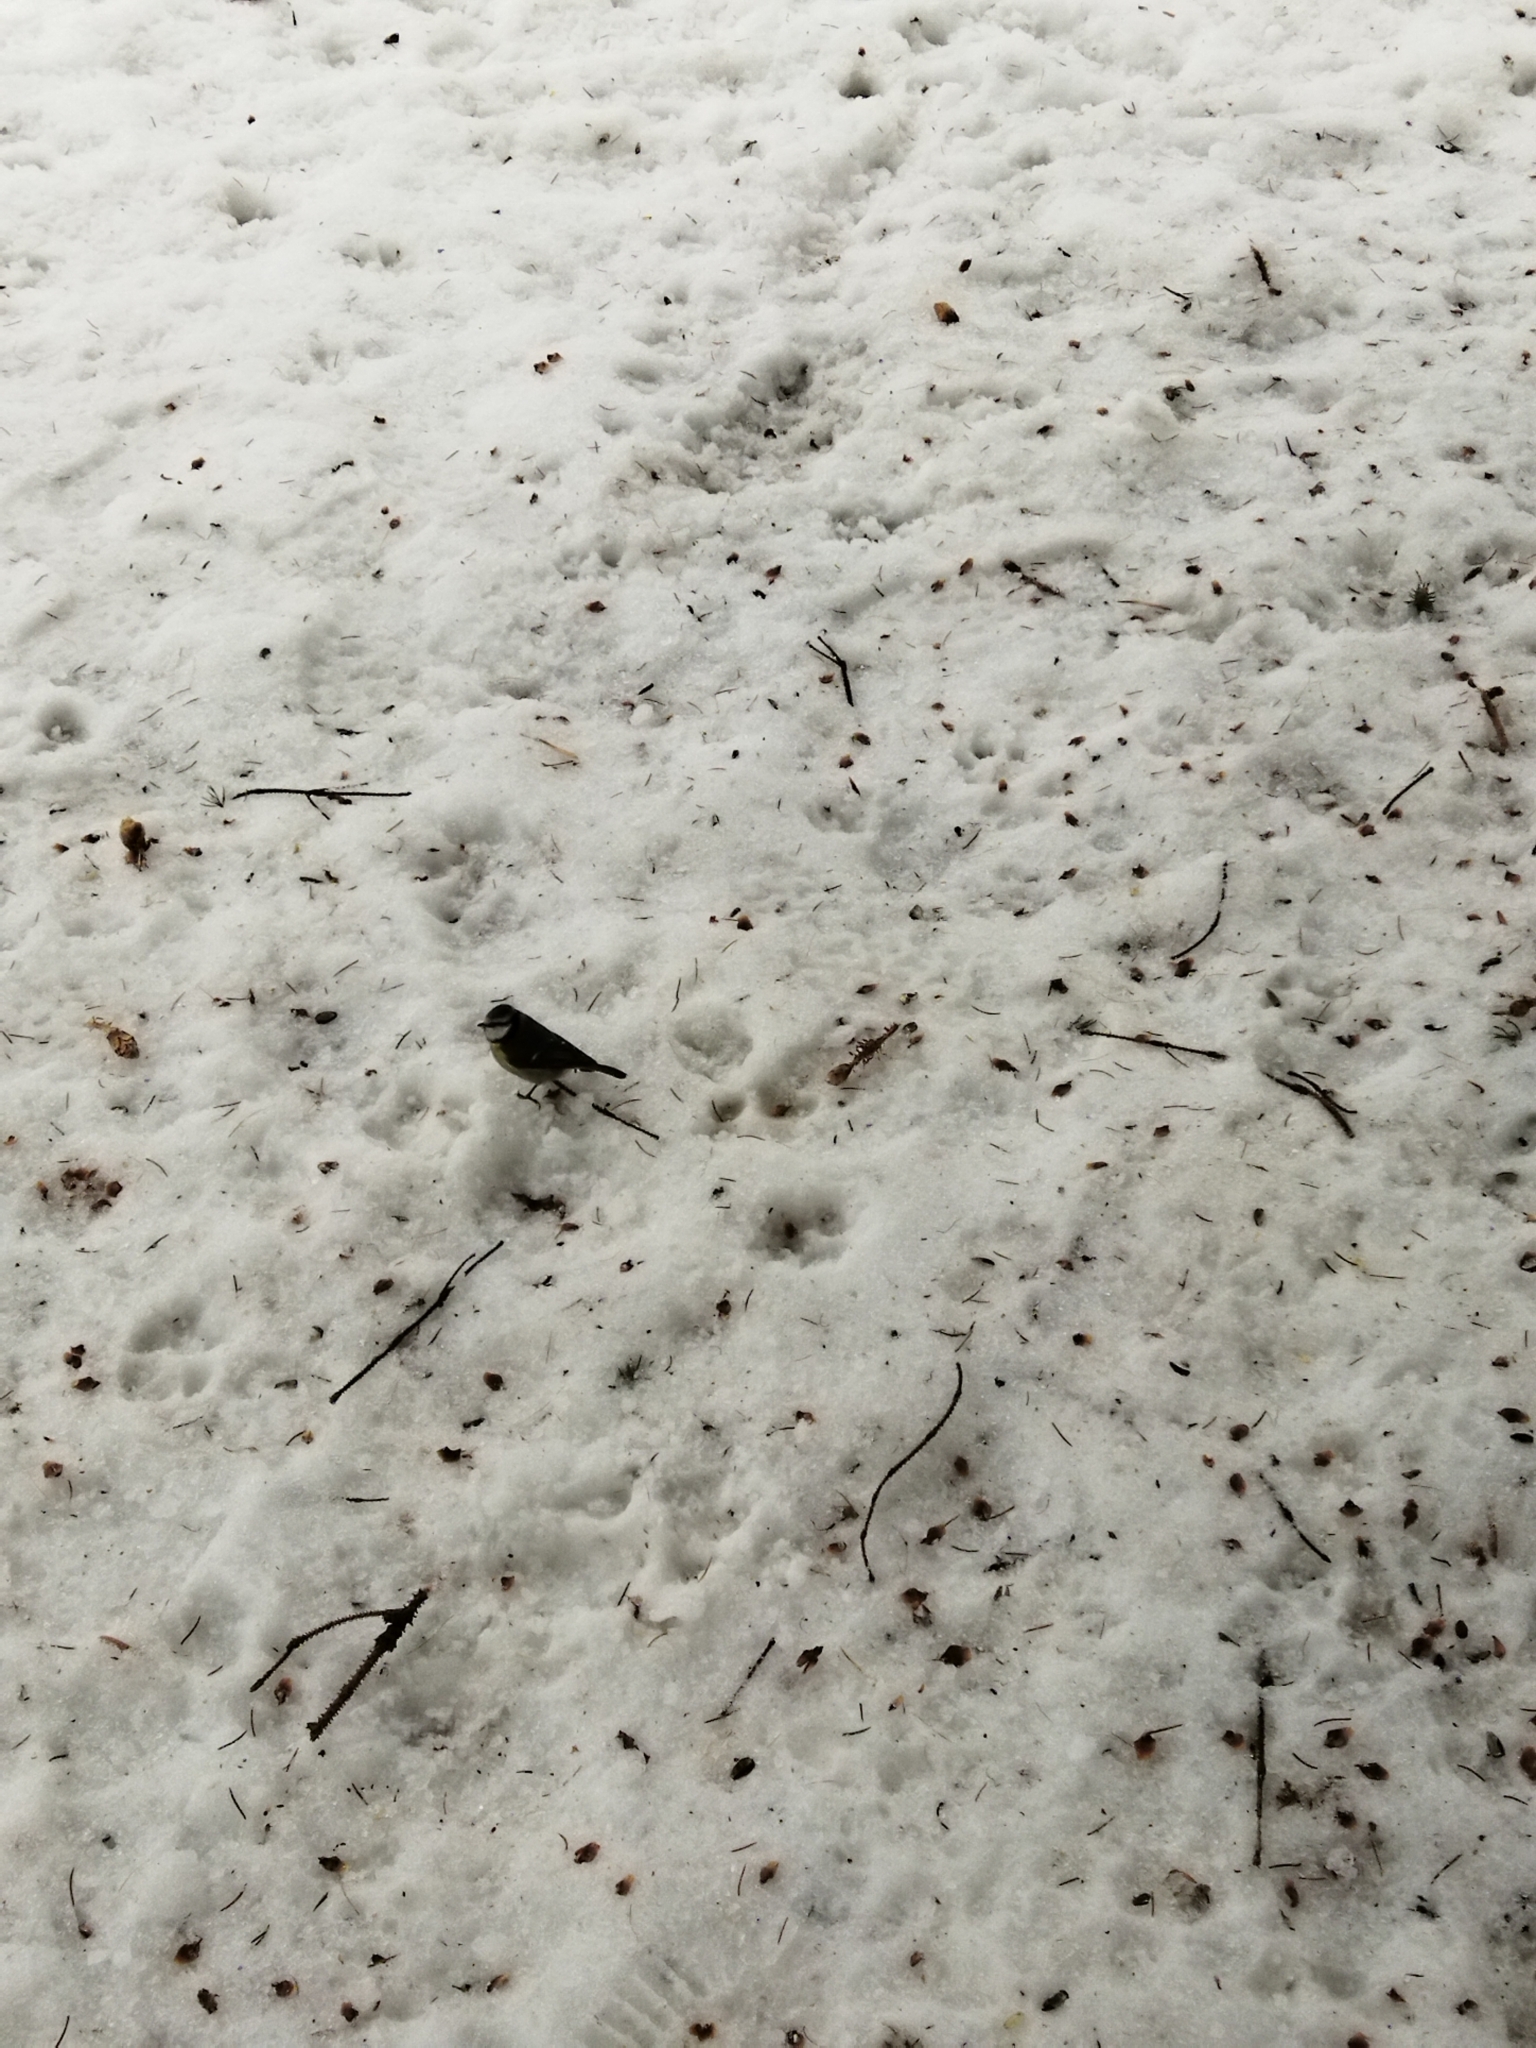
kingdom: Animalia
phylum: Chordata
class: Aves
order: Passeriformes
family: Paridae
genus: Cyanistes
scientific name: Cyanistes caeruleus
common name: Eurasian blue tit
